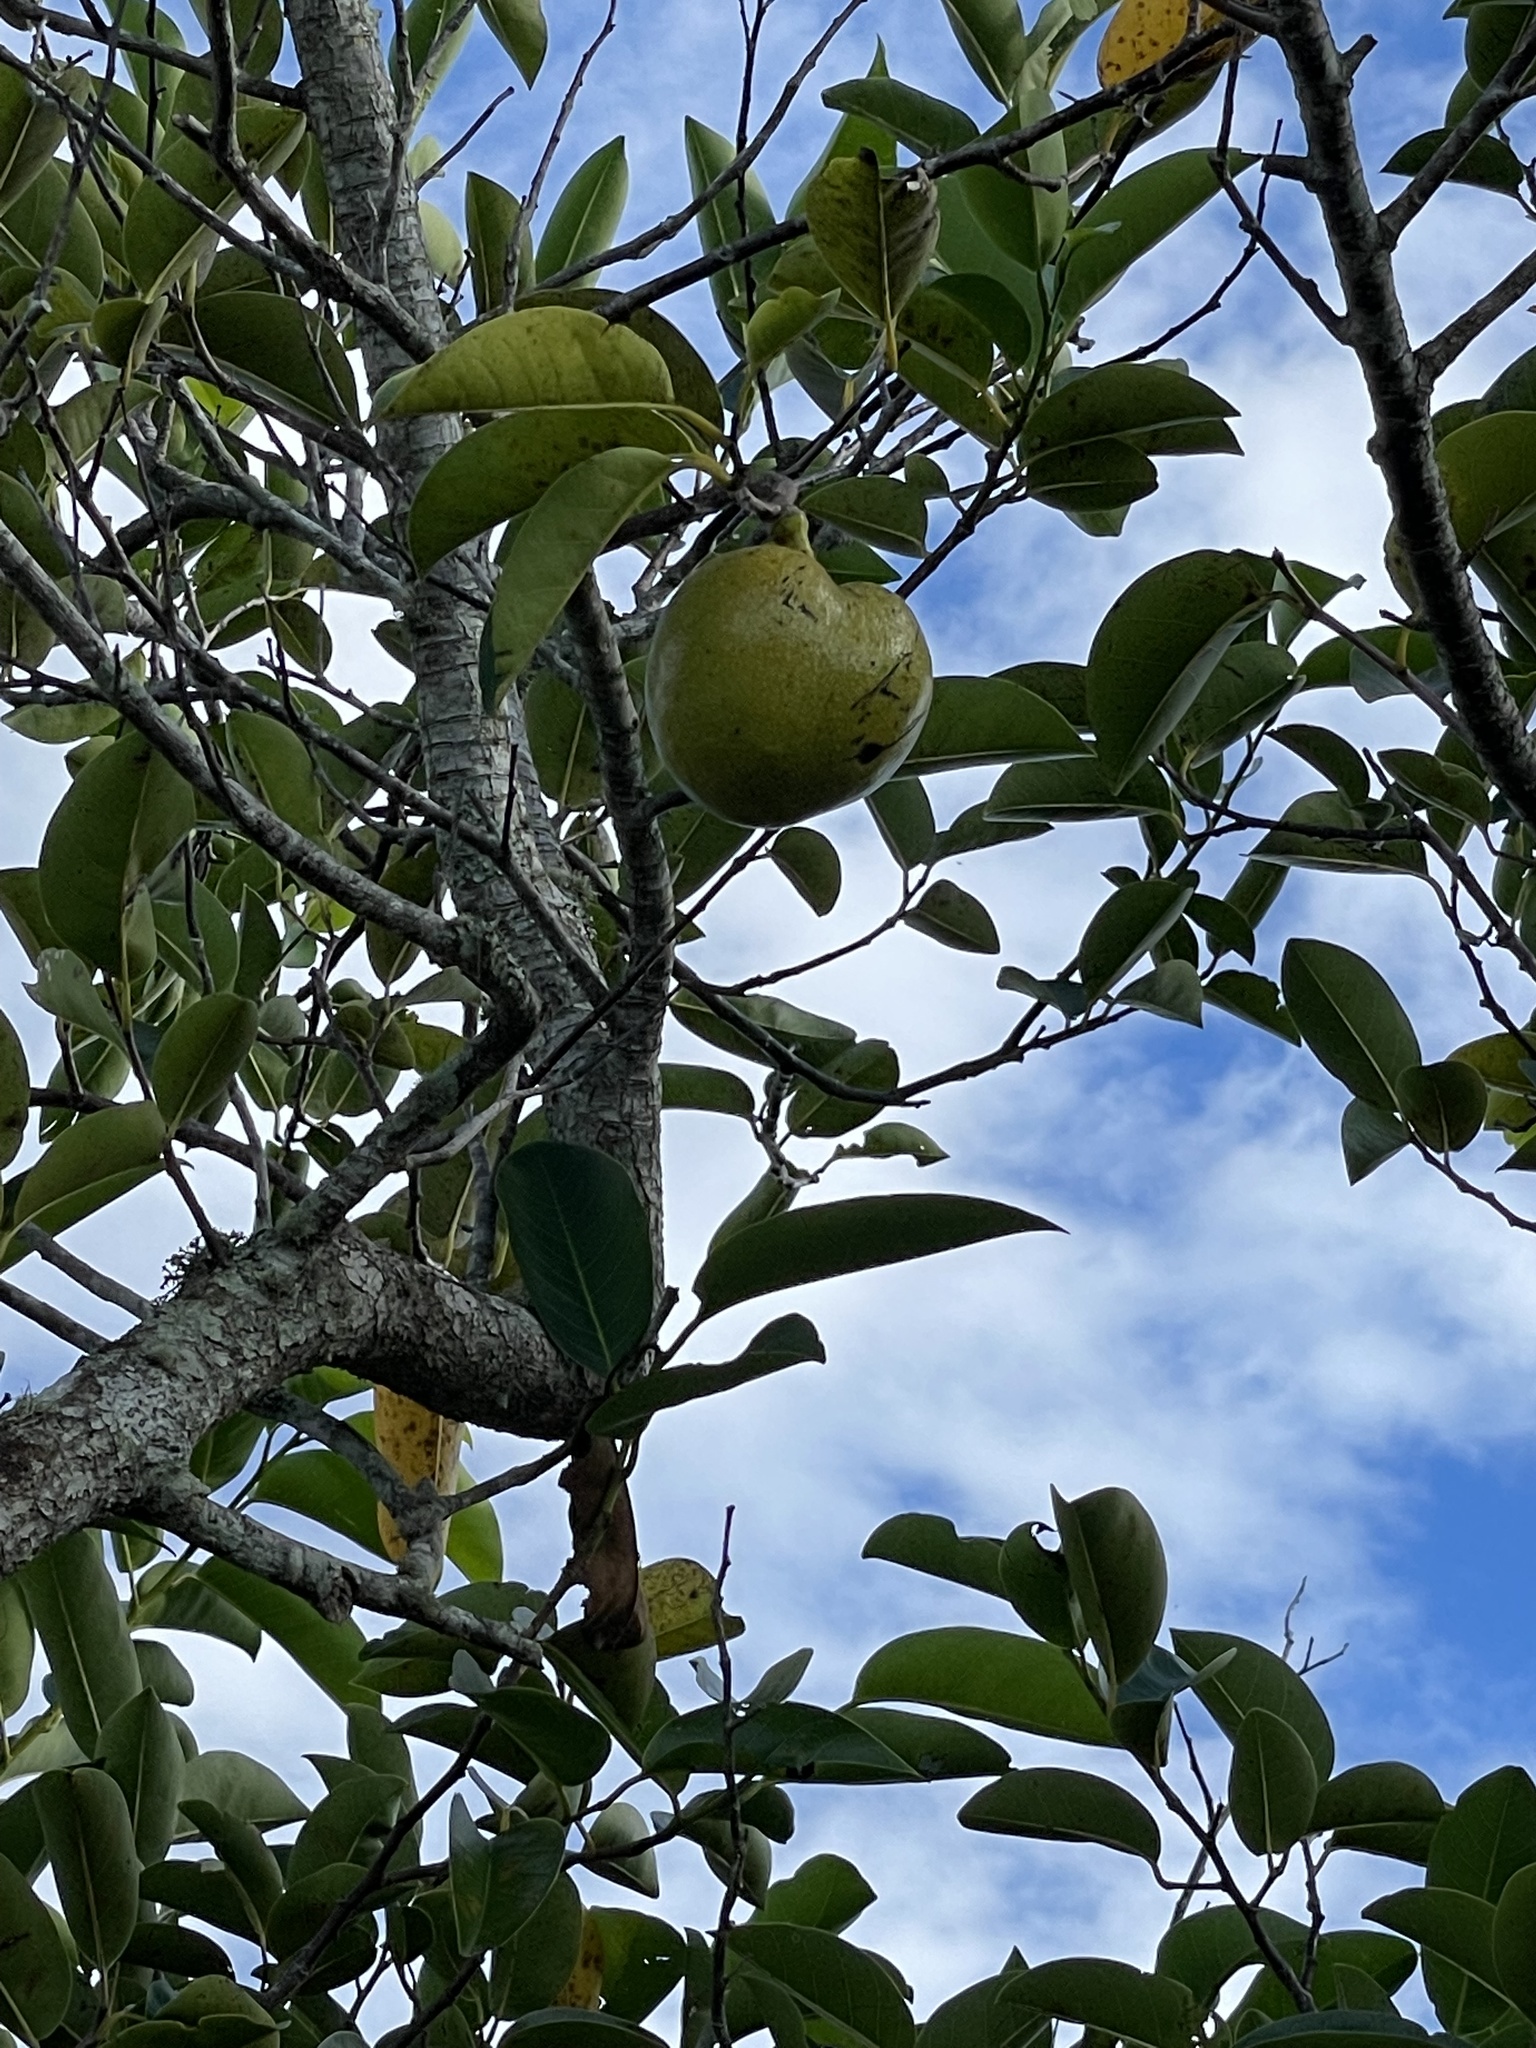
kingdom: Plantae
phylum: Tracheophyta
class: Magnoliopsida
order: Magnoliales
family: Annonaceae
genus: Annona
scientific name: Annona glabra
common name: Monkey apple
